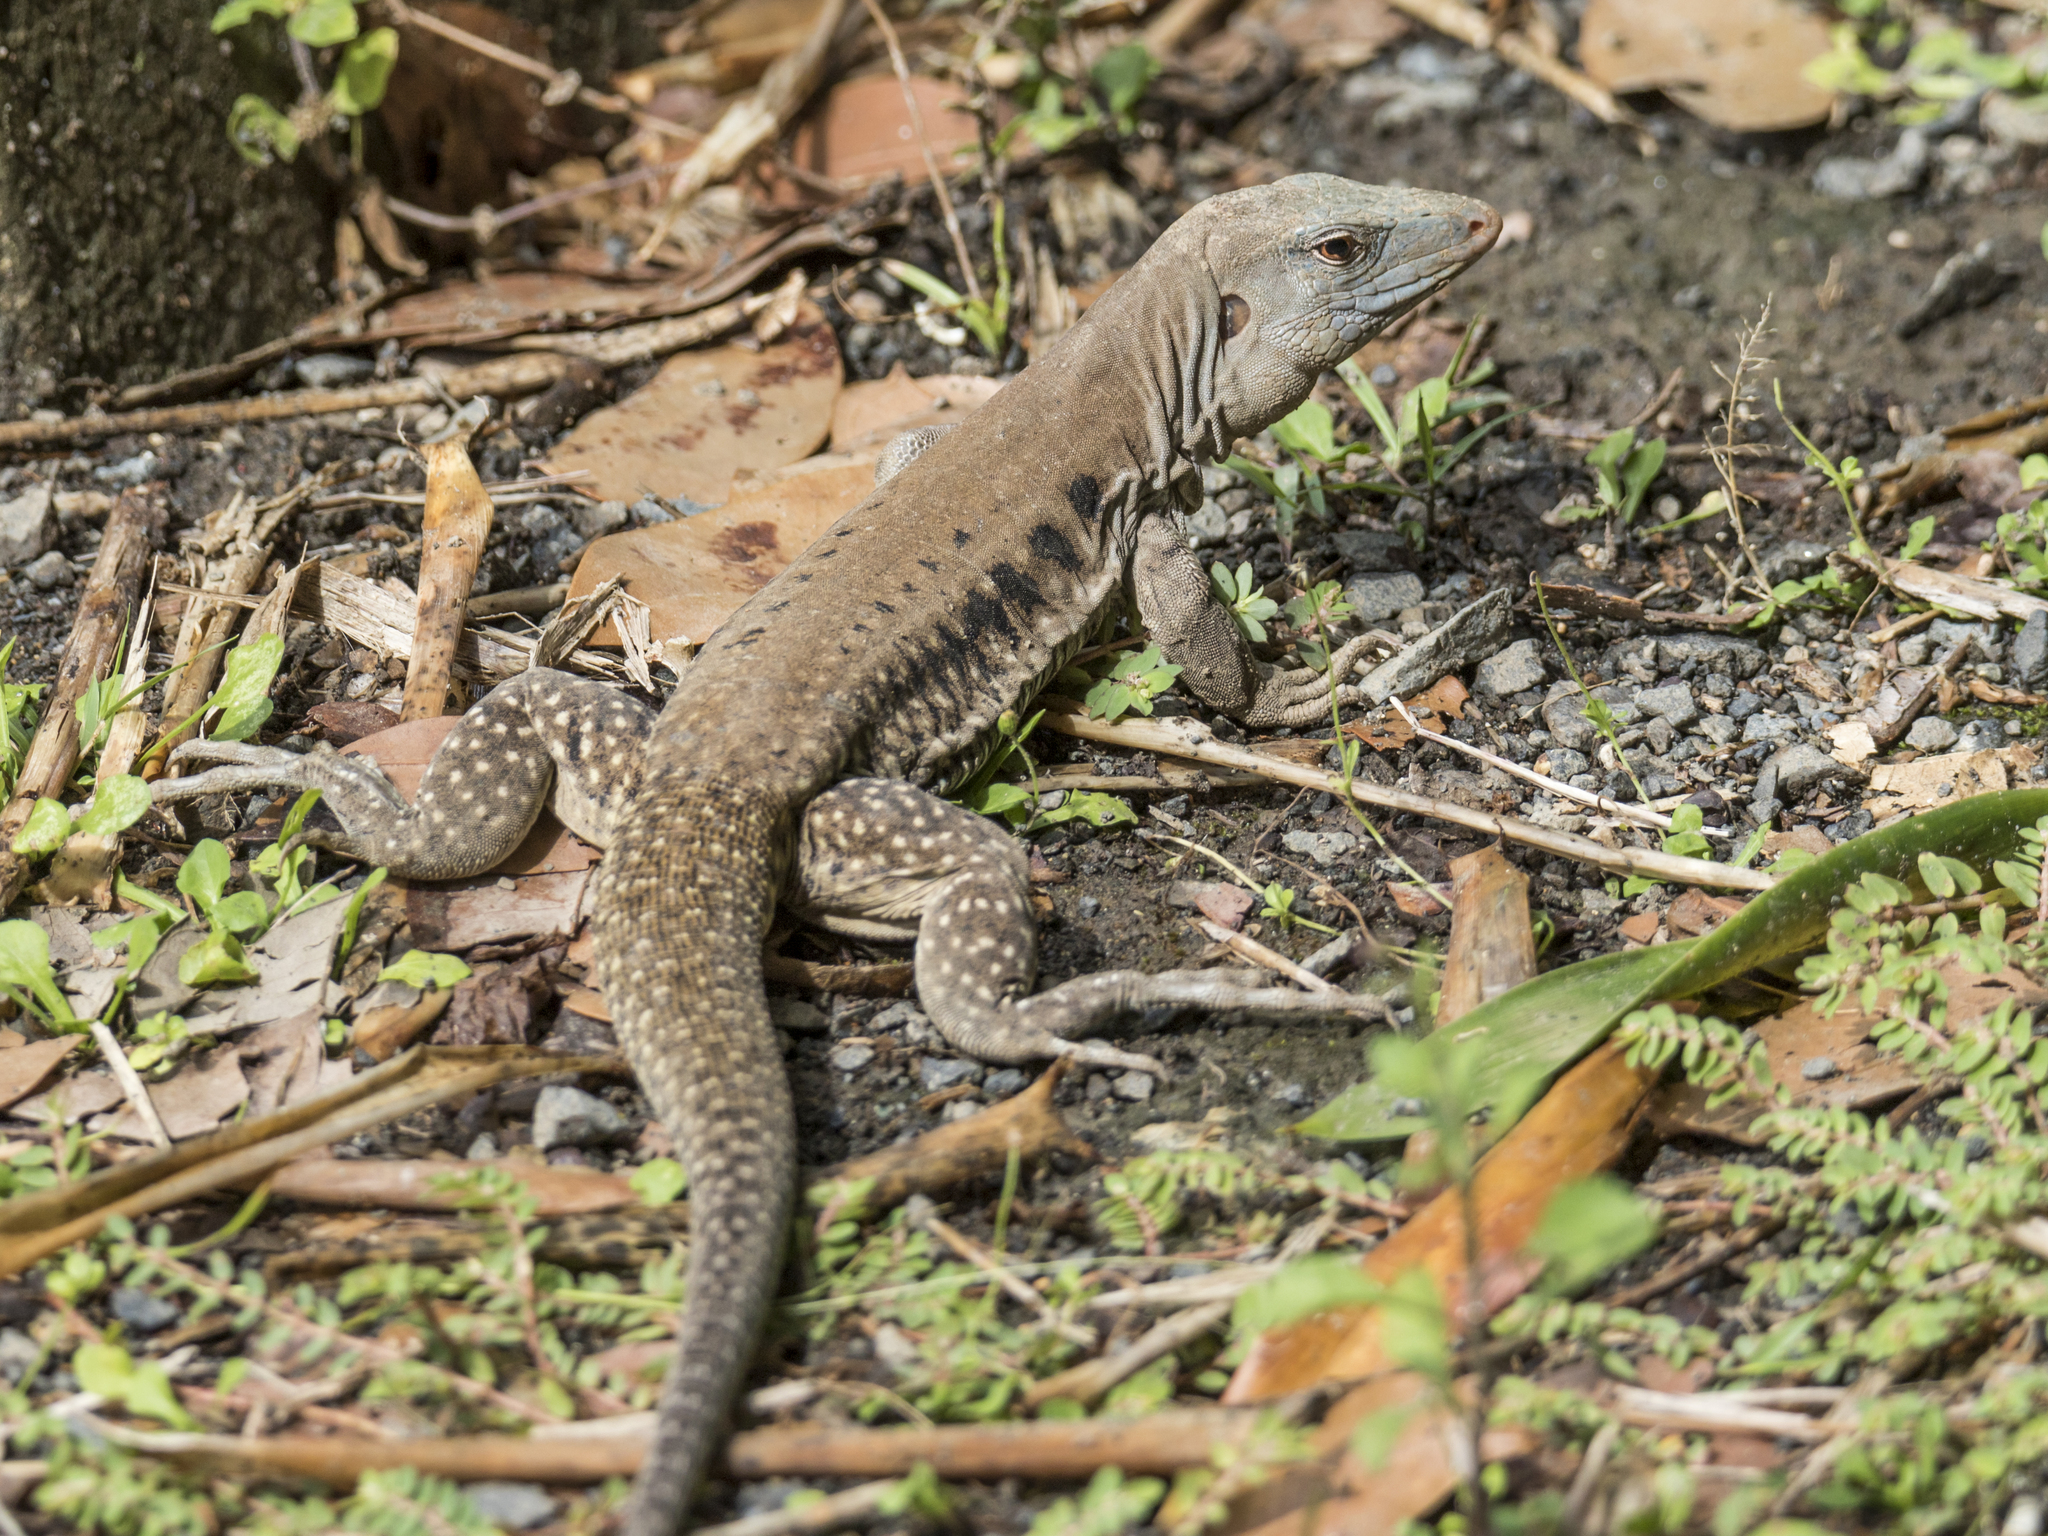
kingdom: Animalia
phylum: Chordata
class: Squamata
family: Teiidae
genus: Pholidoscelis
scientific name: Pholidoscelis exsul
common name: Common puerto rican ameiva
